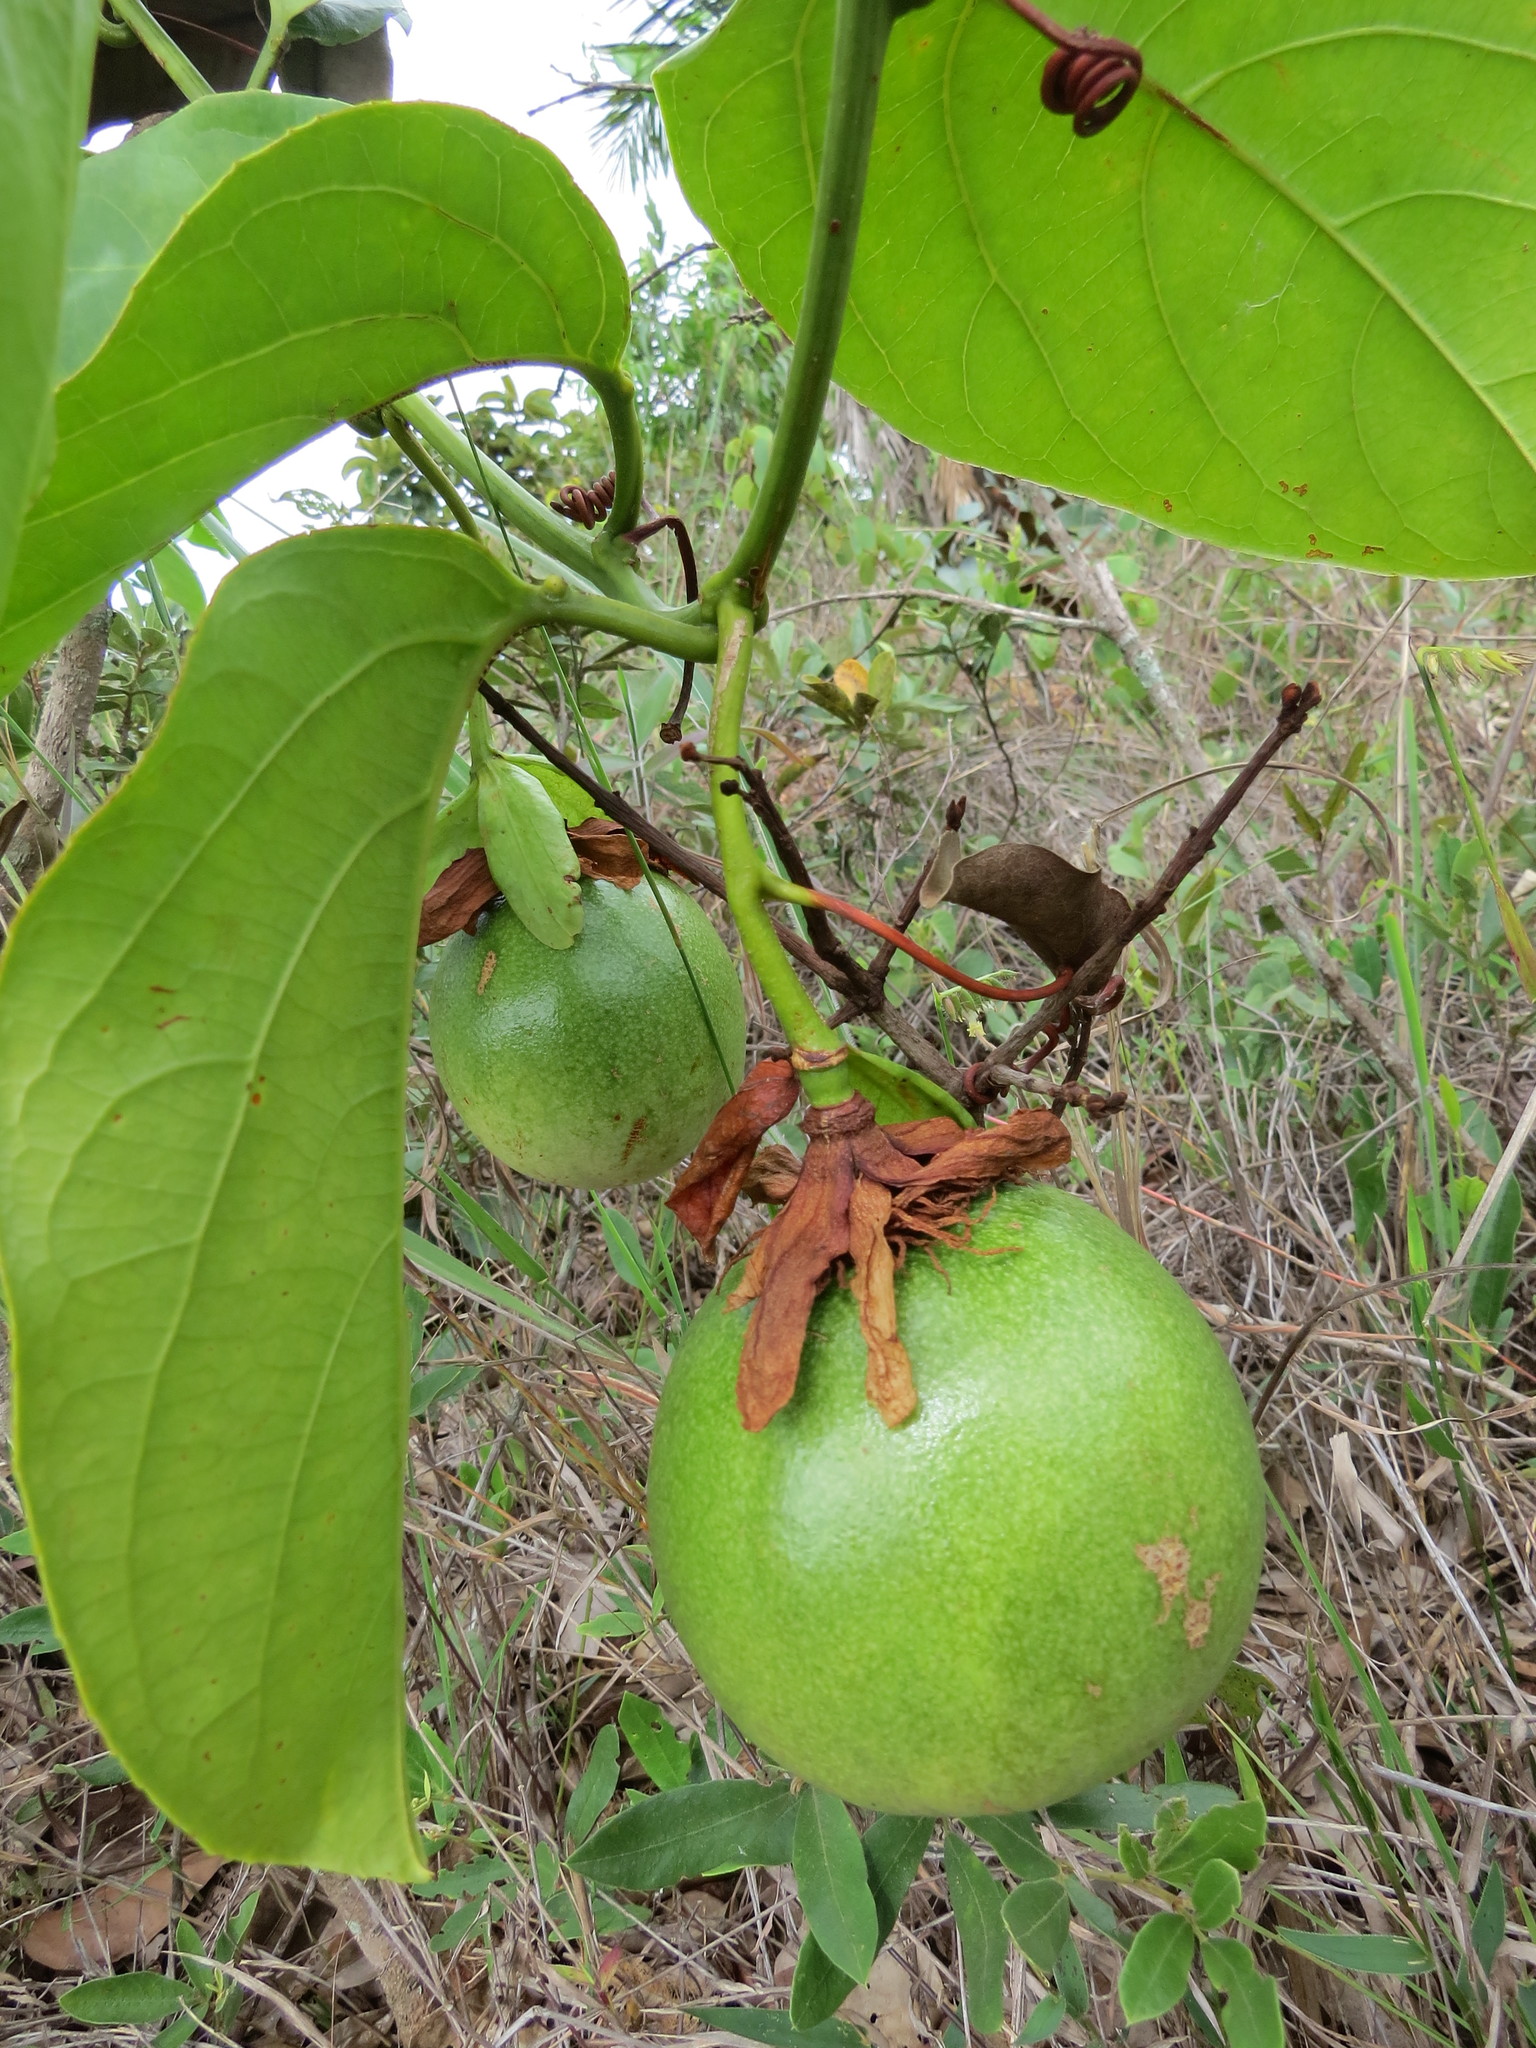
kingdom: Plantae
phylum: Tracheophyta
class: Magnoliopsida
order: Malpighiales
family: Passifloraceae
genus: Passiflora
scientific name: Passiflora nitida
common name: Bell-apple
